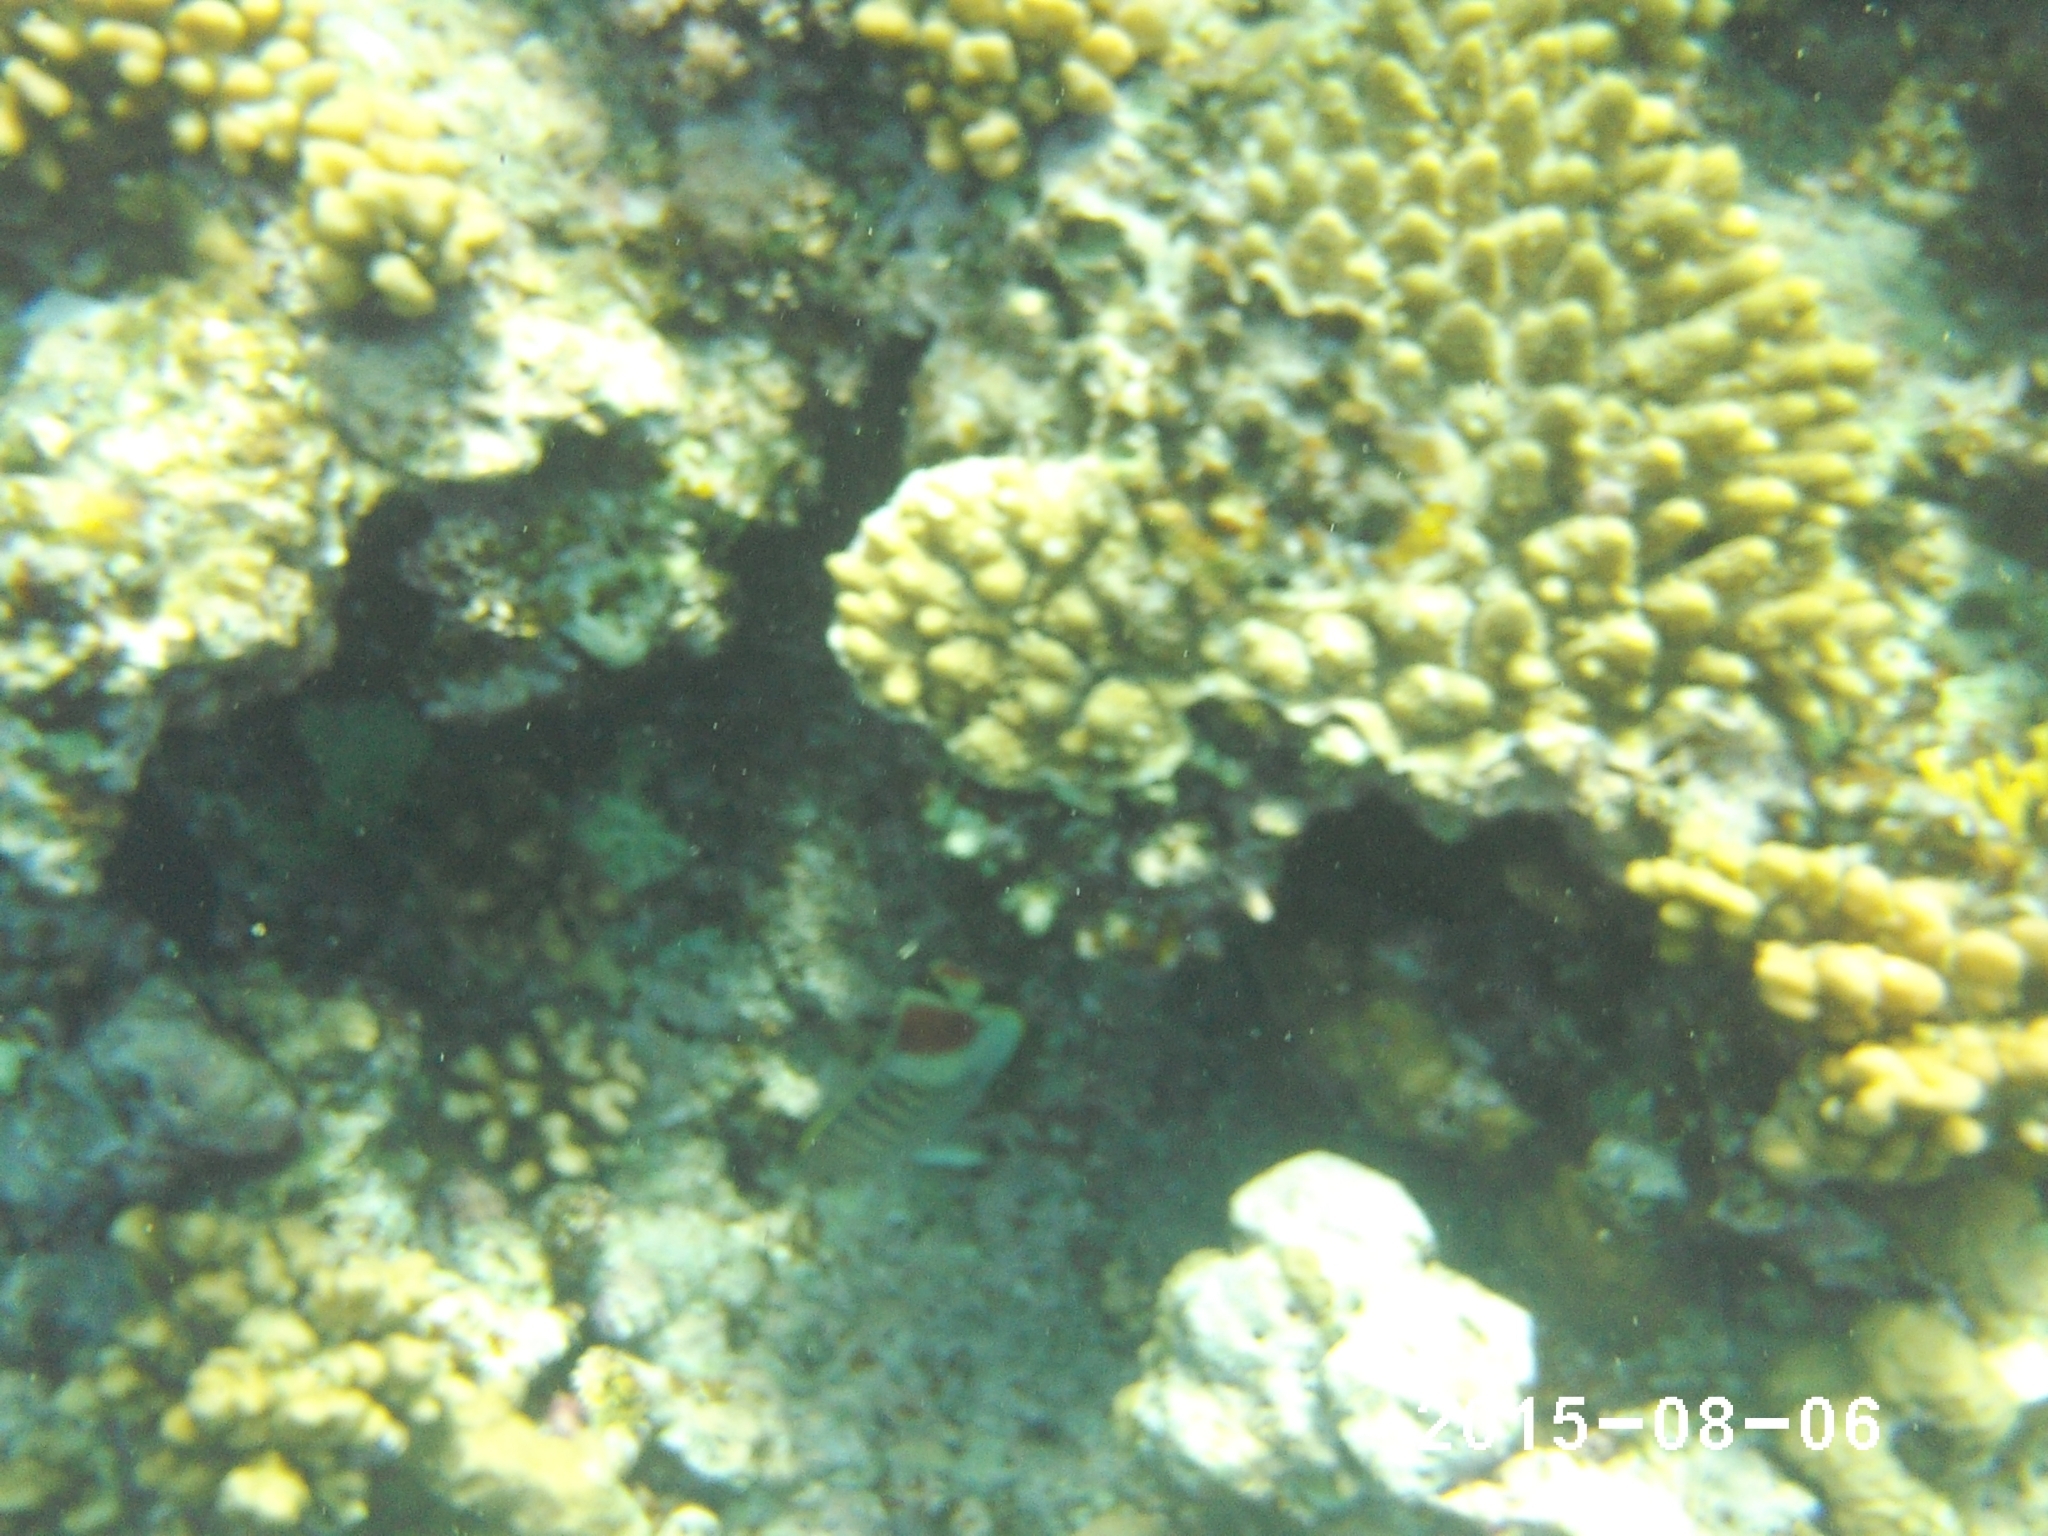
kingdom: Animalia
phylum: Chordata
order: Perciformes
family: Chaetodontidae
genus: Chaetodon
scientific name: Chaetodon paucifasciatus
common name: Crown butterflyfish
